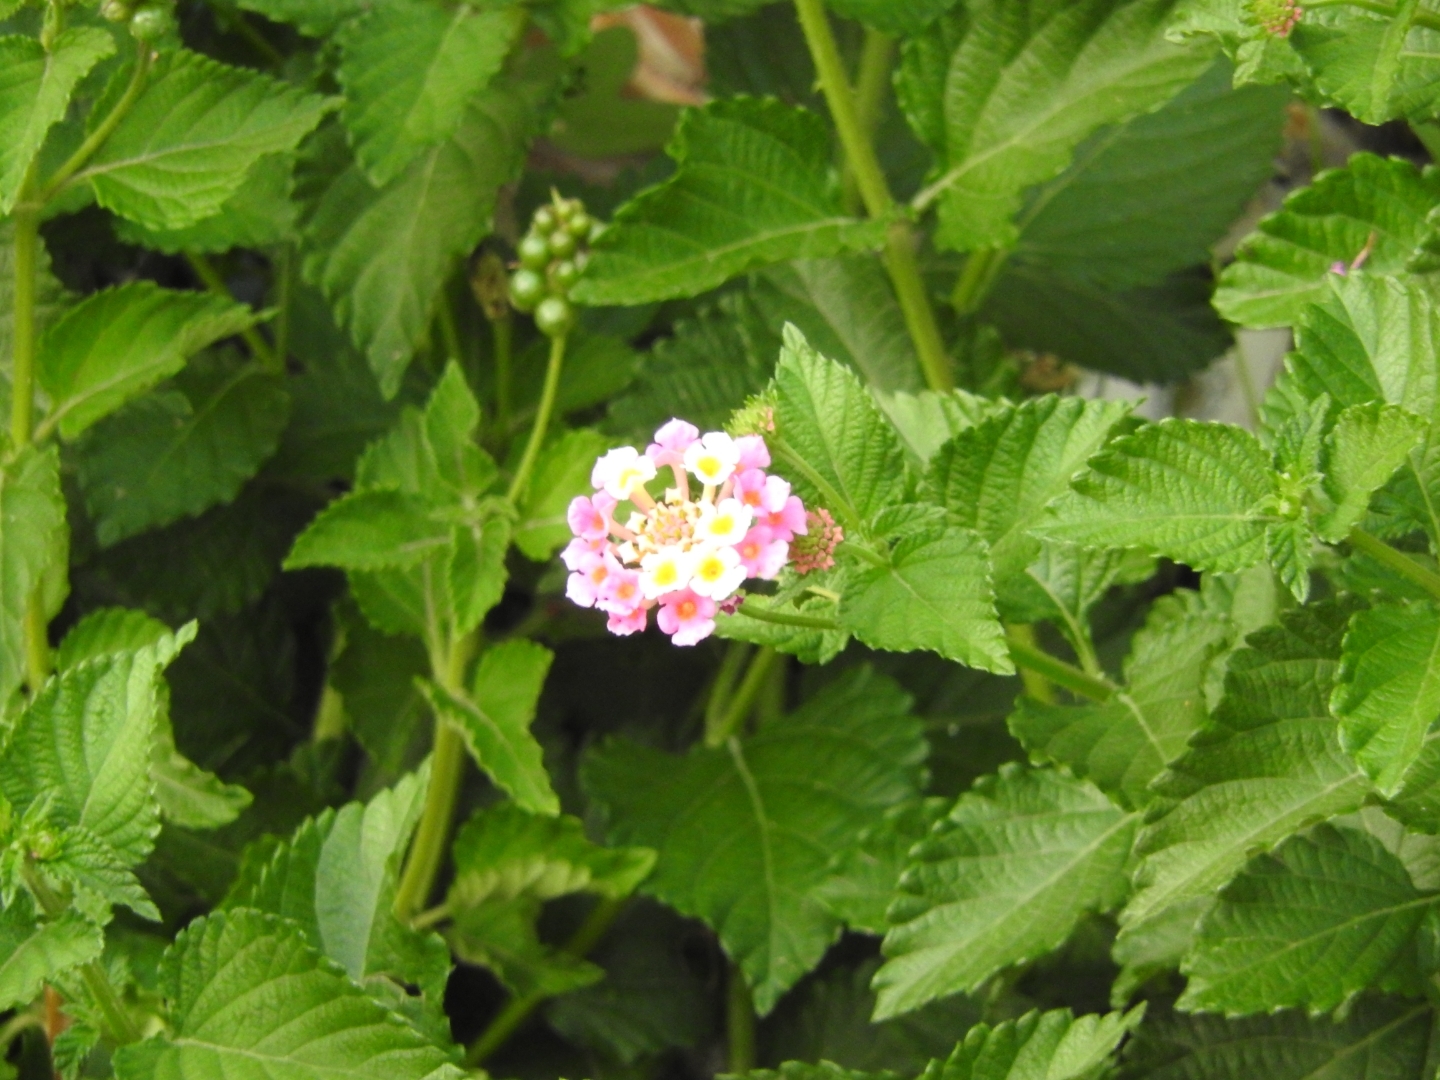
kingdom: Plantae
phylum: Tracheophyta
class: Magnoliopsida
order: Lamiales
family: Verbenaceae
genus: Lantana
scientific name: Lantana camara
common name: Lantana
